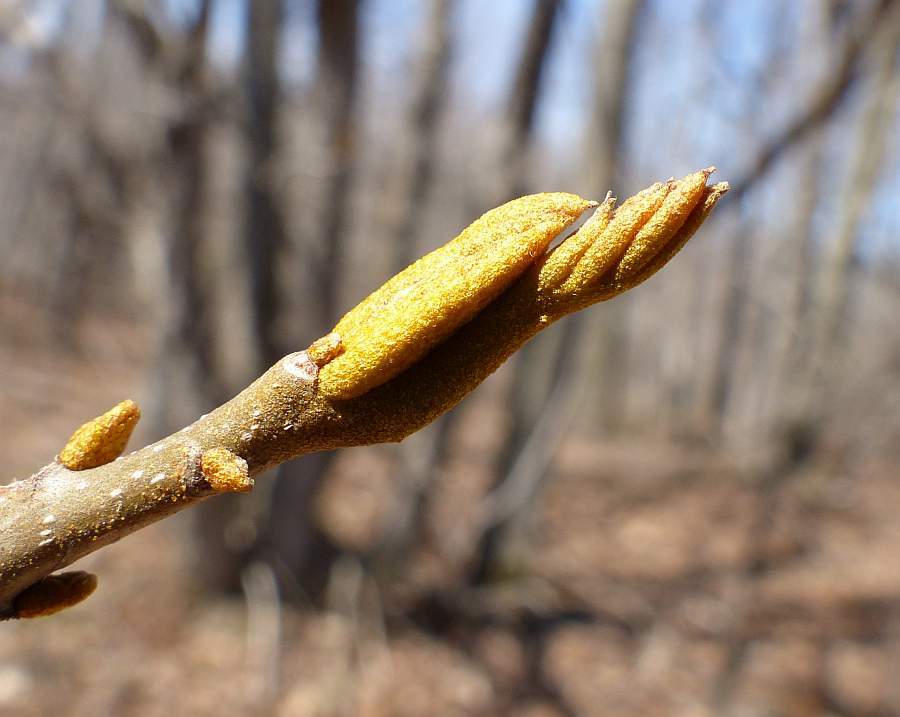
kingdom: Plantae
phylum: Tracheophyta
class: Magnoliopsida
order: Fagales
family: Juglandaceae
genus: Carya
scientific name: Carya cordiformis
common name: Bitternut hickory
